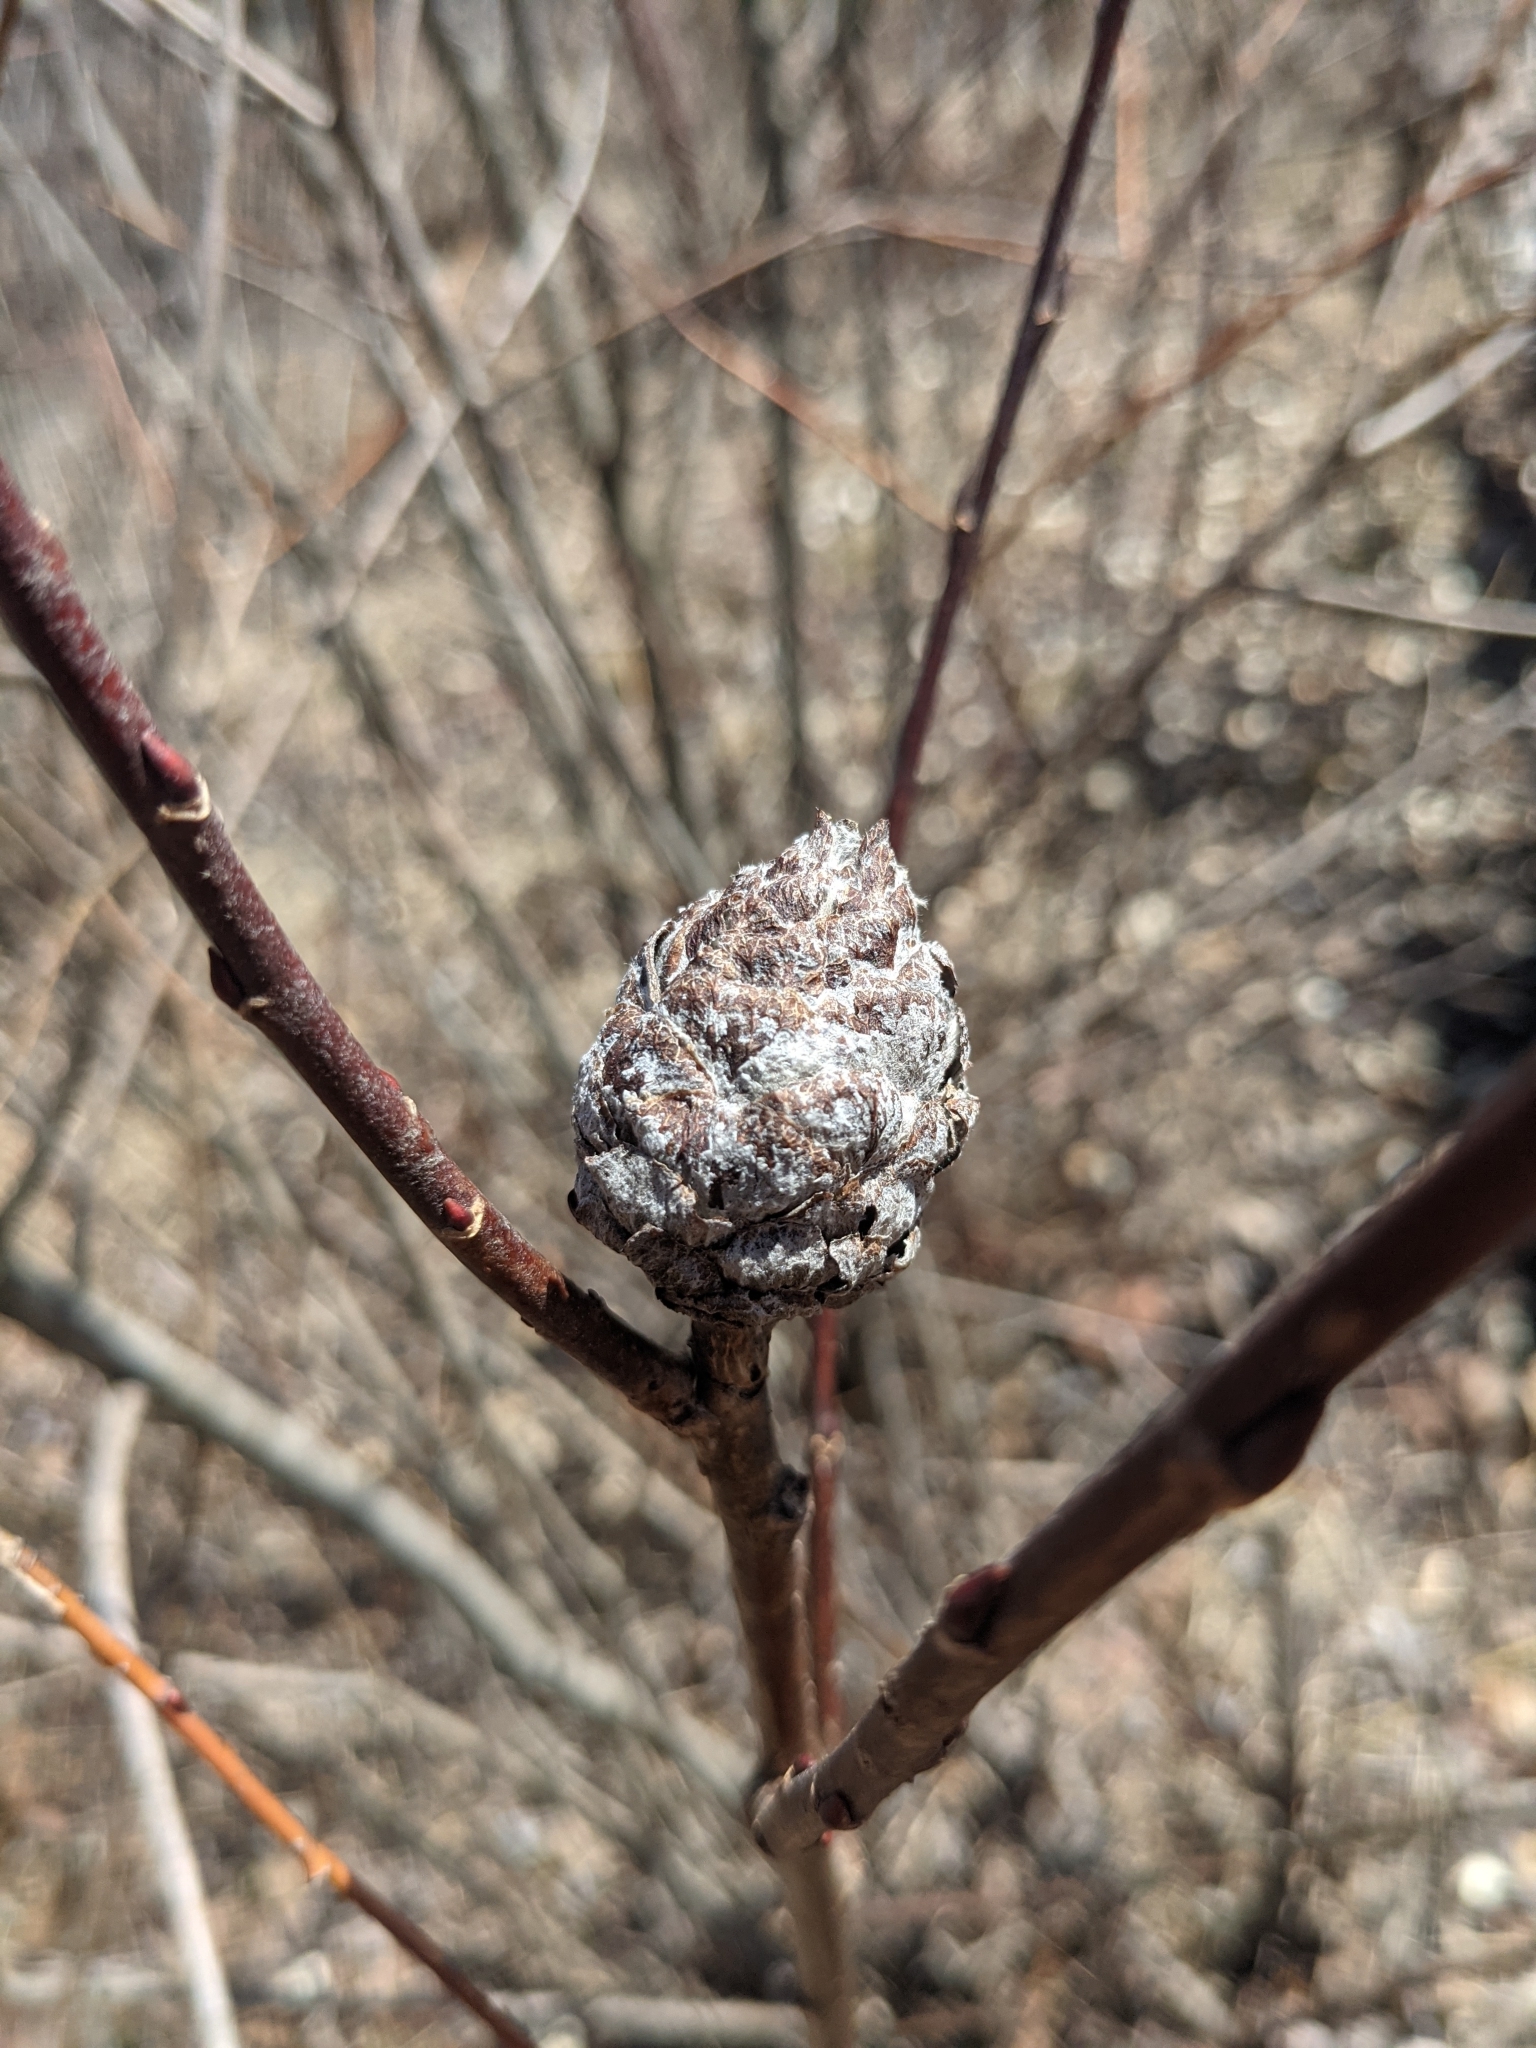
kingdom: Animalia
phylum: Arthropoda
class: Insecta
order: Diptera
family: Cecidomyiidae
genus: Rabdophaga
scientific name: Rabdophaga strobiloides
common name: Willow pinecone gall midge
